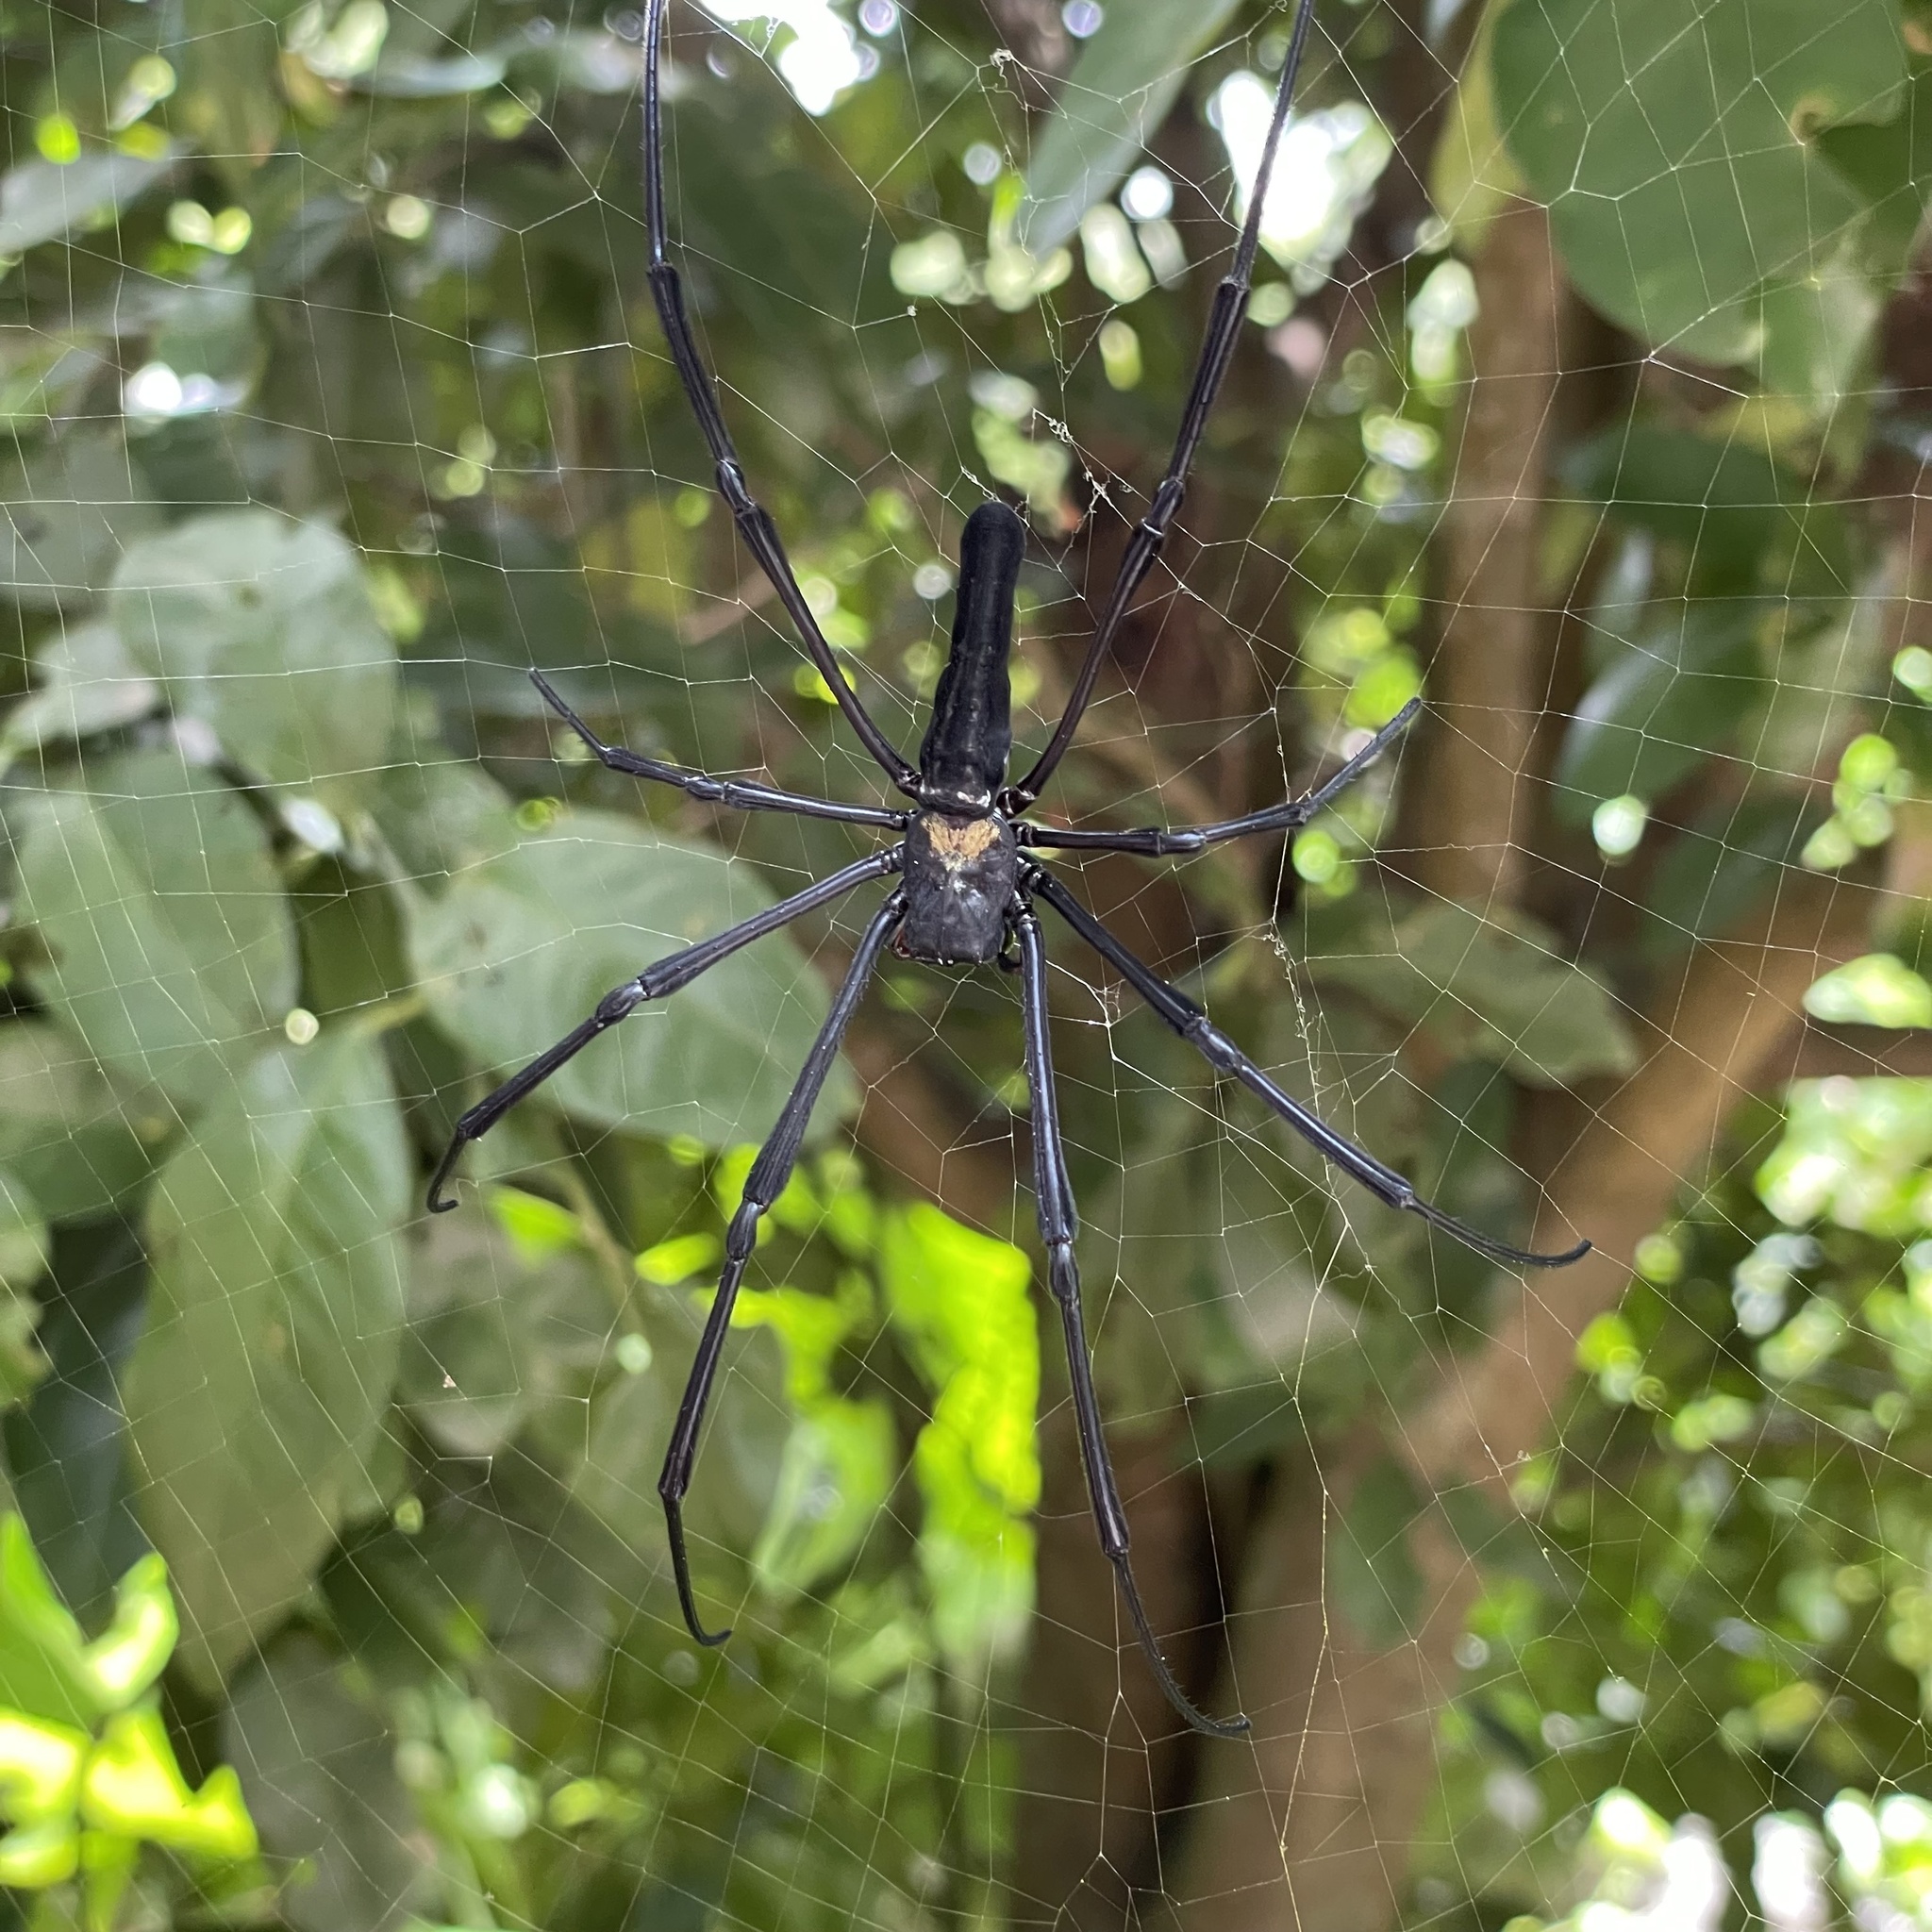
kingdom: Animalia
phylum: Arthropoda
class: Arachnida
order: Araneae
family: Araneidae
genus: Nephila
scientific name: Nephila pilipes
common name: Giant golden orb weaver
